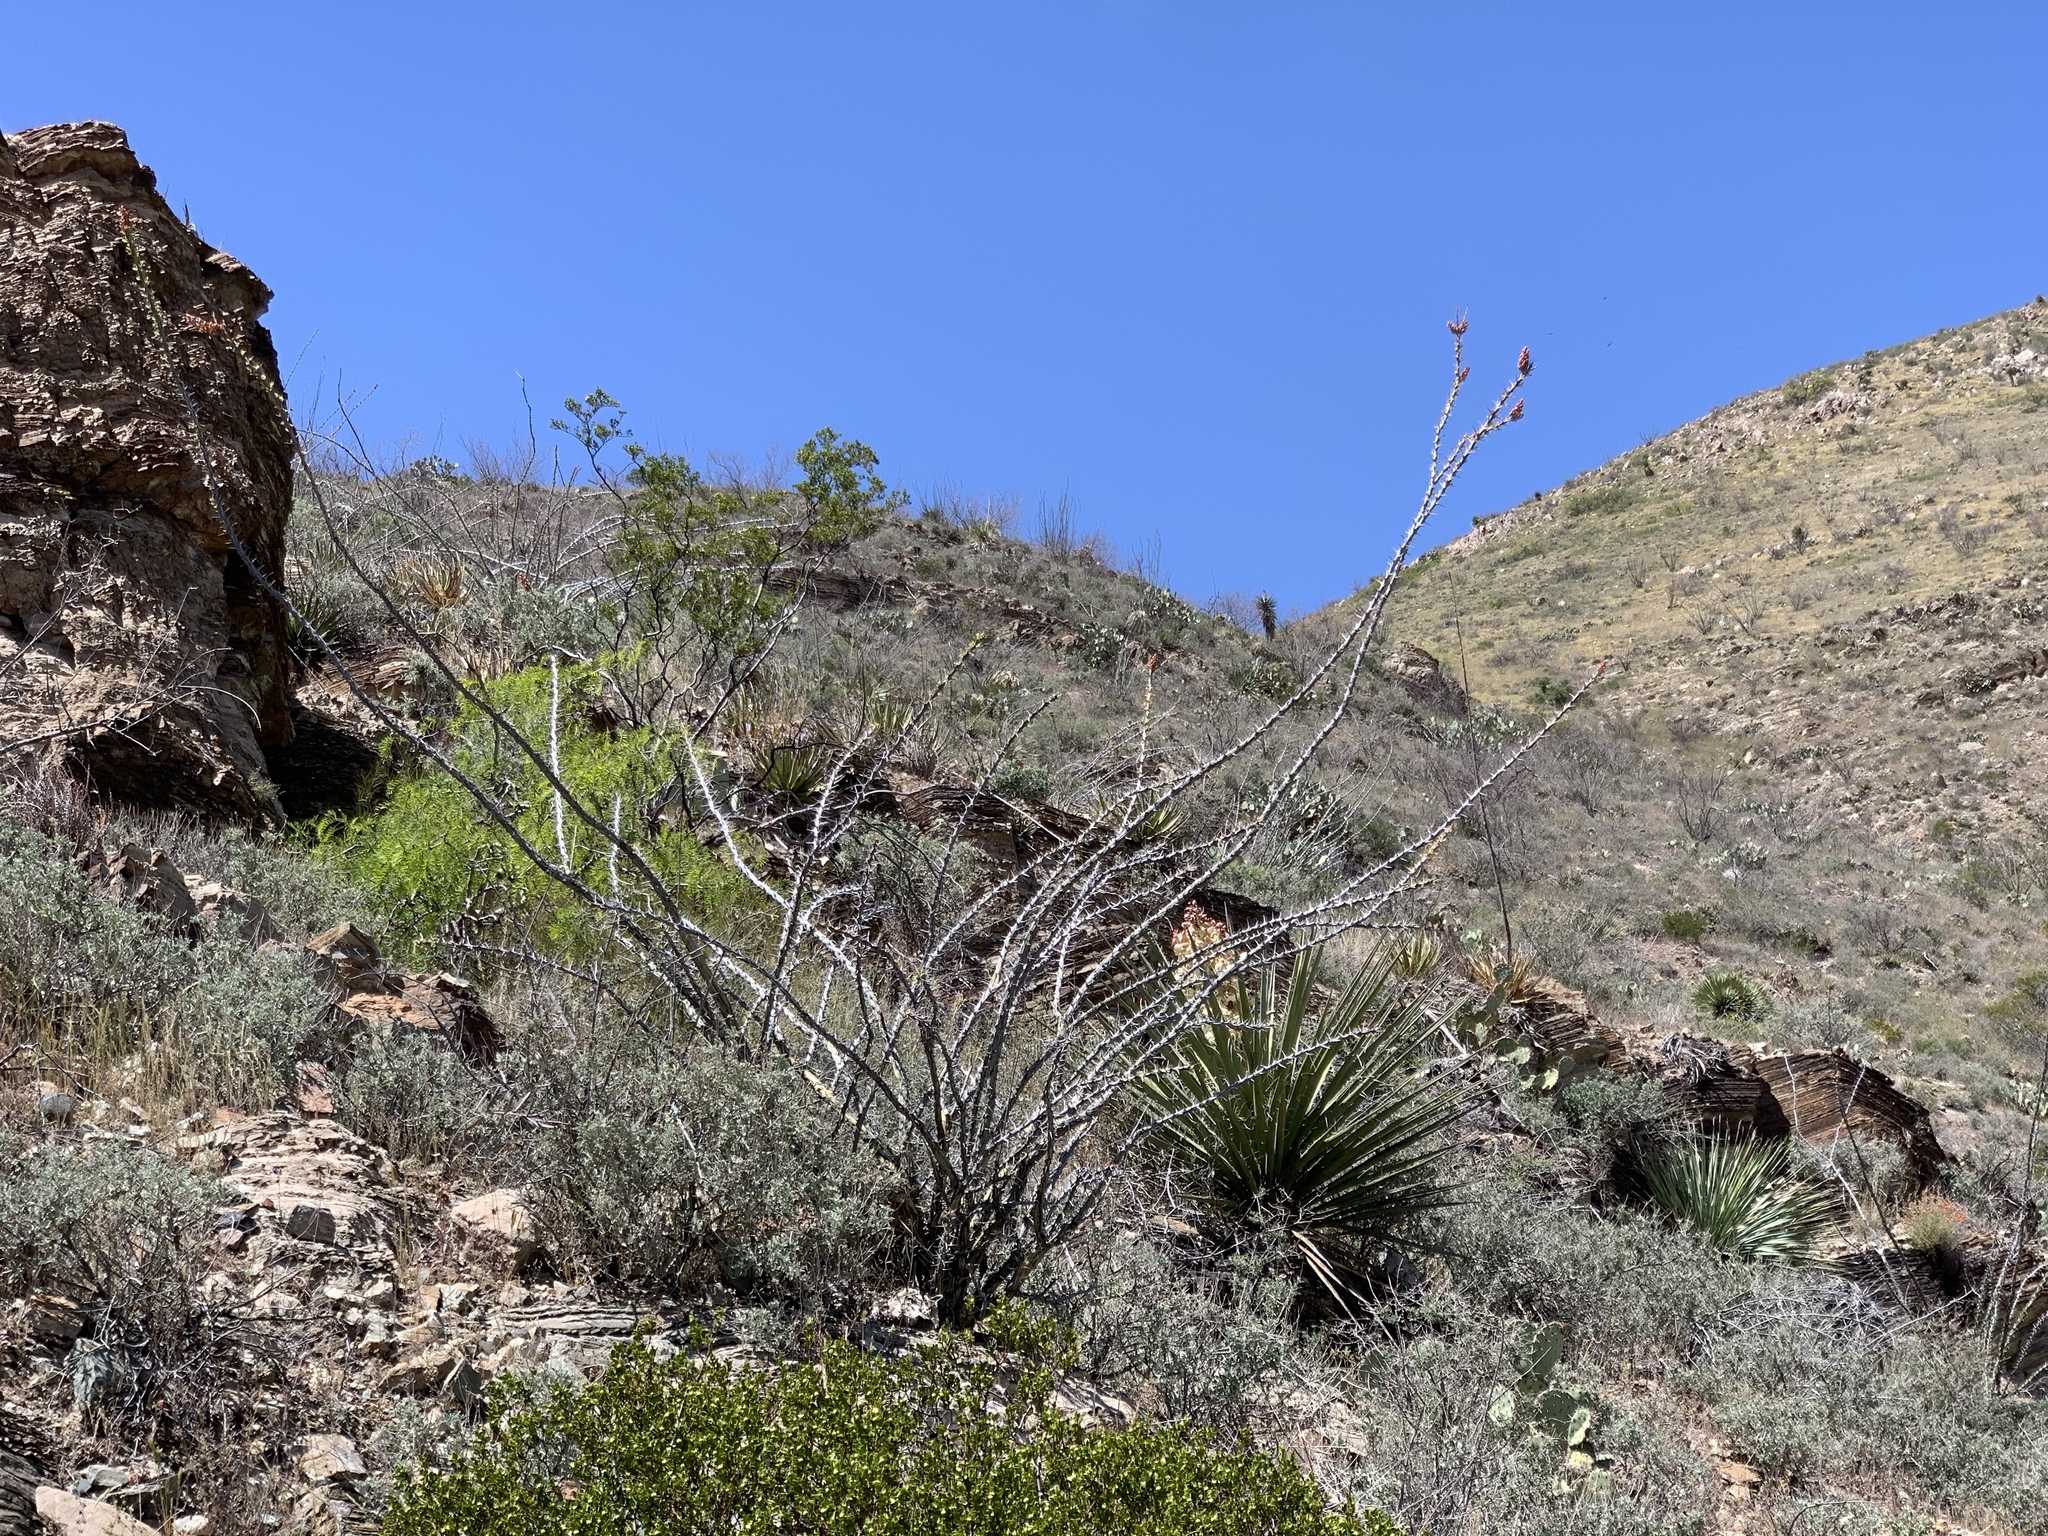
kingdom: Plantae
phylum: Tracheophyta
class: Magnoliopsida
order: Ericales
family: Fouquieriaceae
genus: Fouquieria
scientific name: Fouquieria splendens
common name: Vine-cactus
